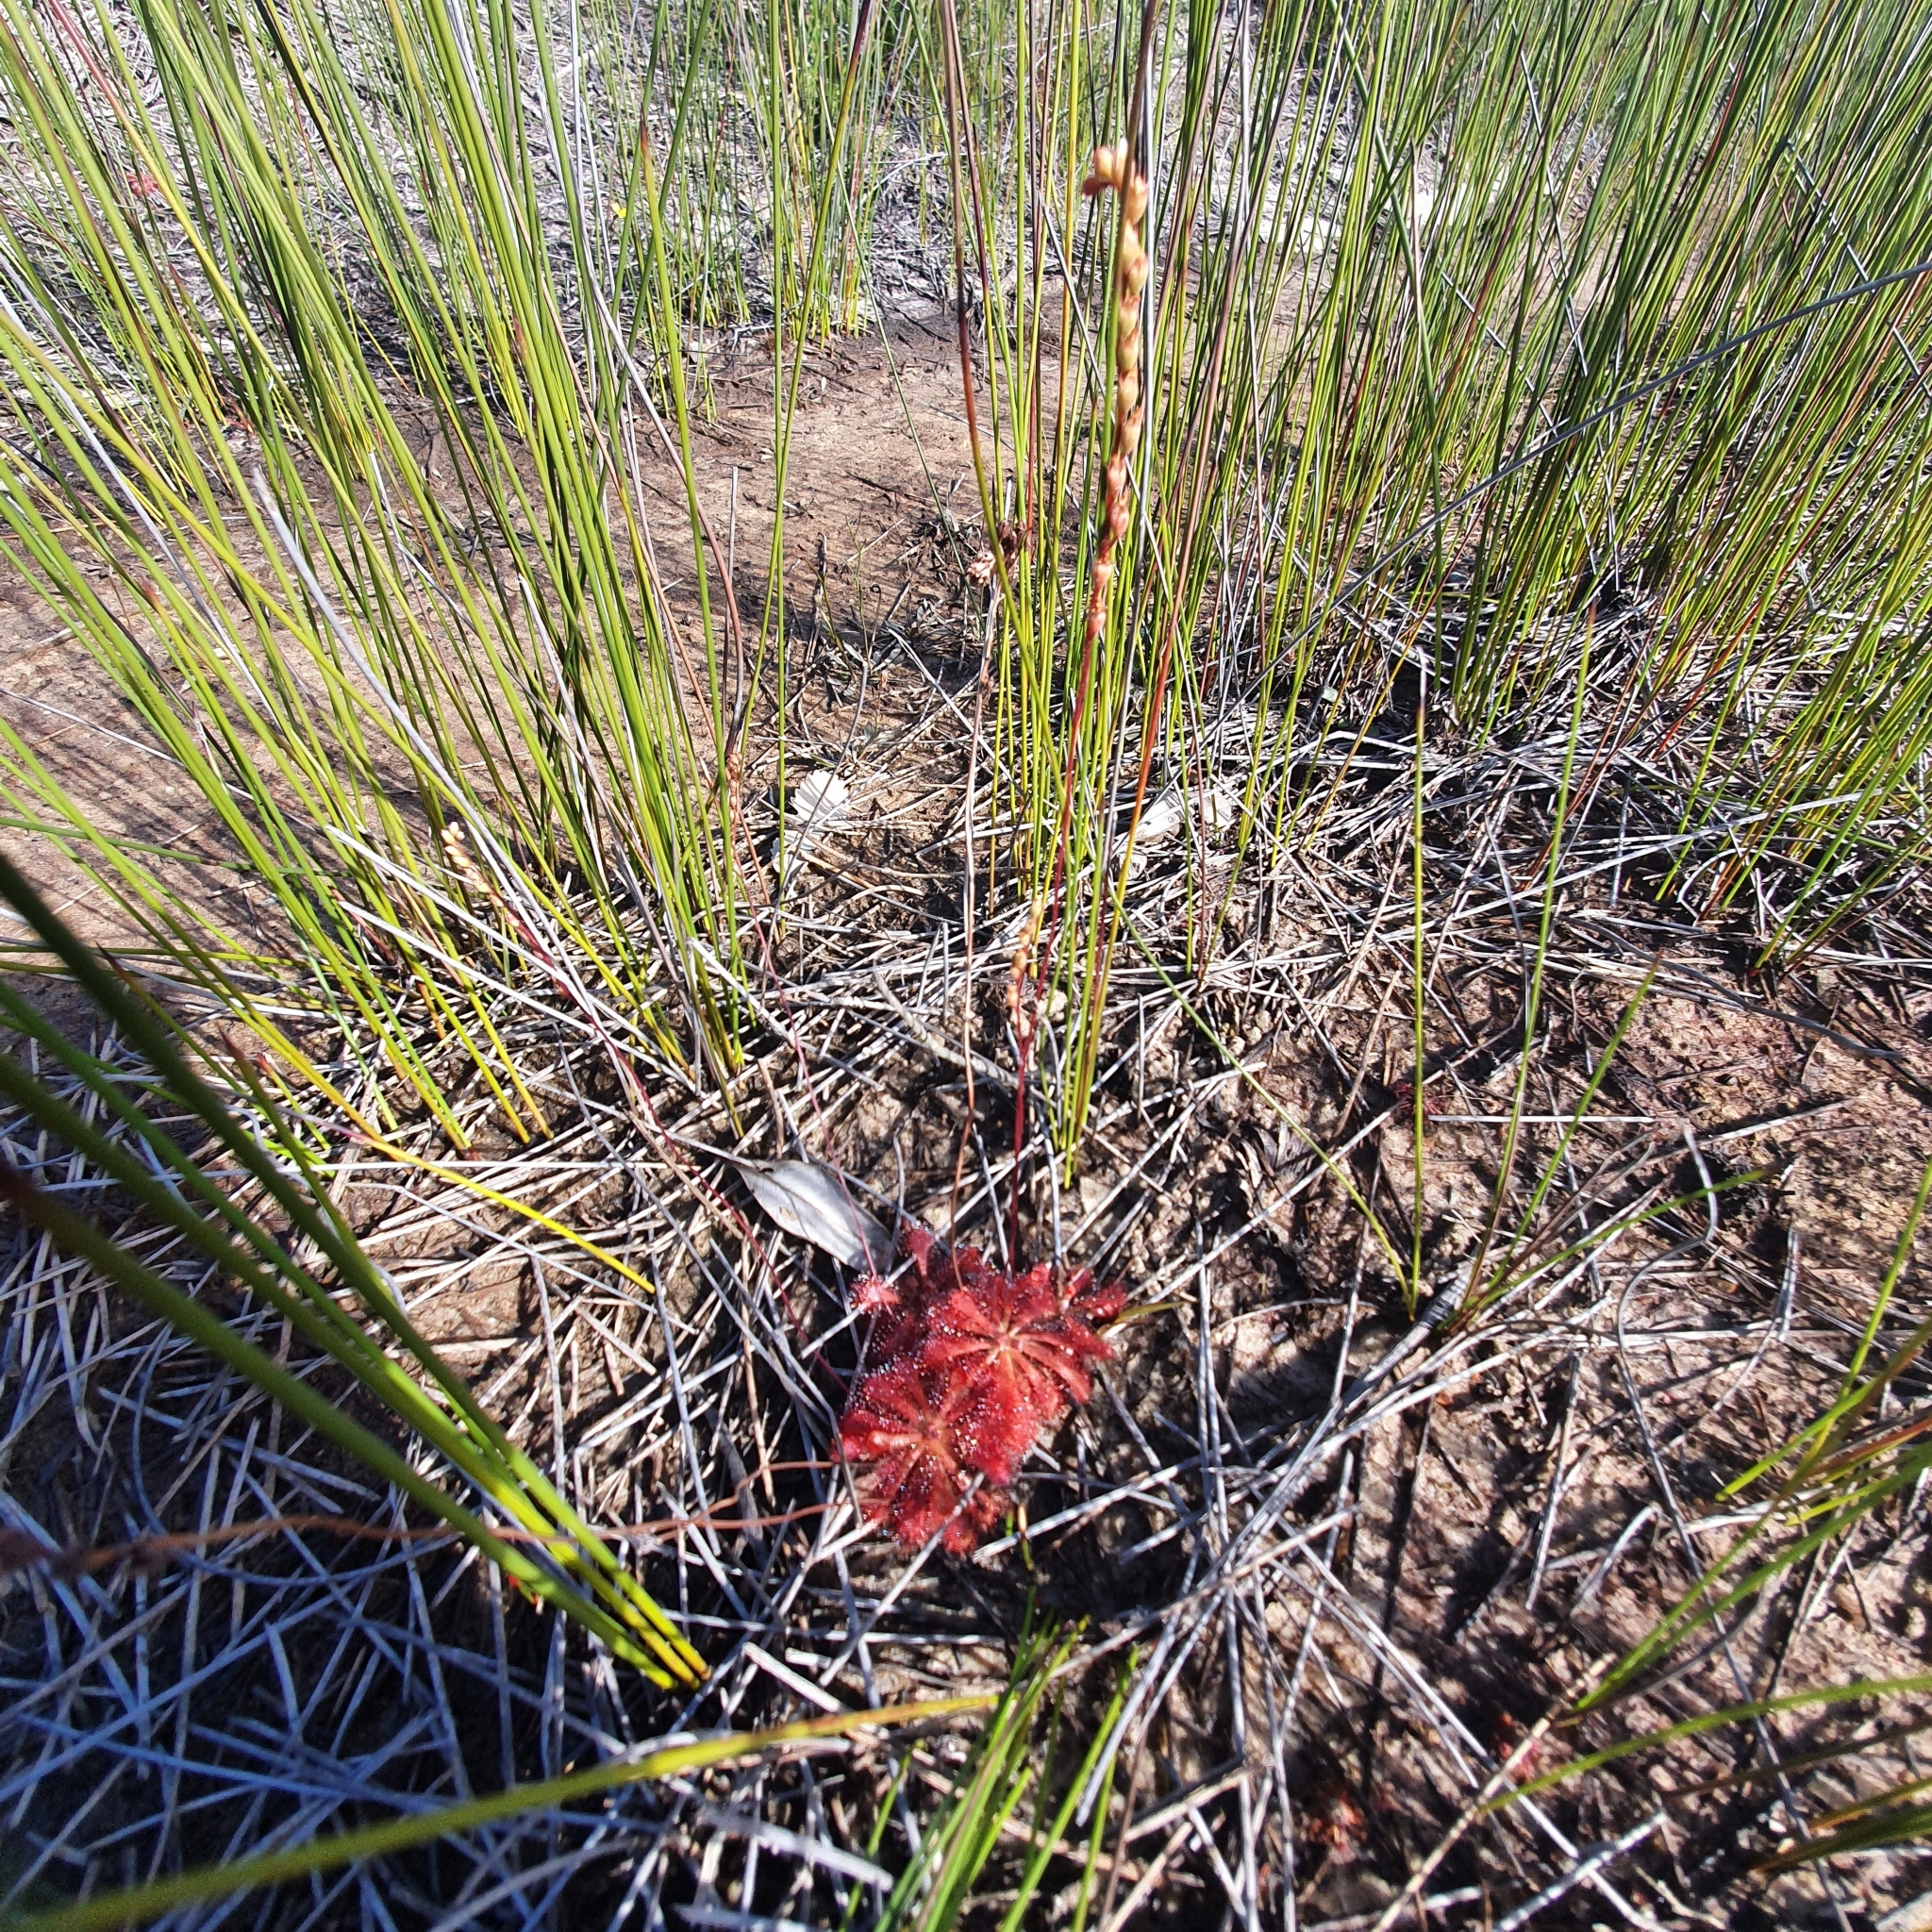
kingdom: Plantae
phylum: Tracheophyta
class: Magnoliopsida
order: Caryophyllales
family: Droseraceae
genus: Drosera
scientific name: Drosera spatulata
